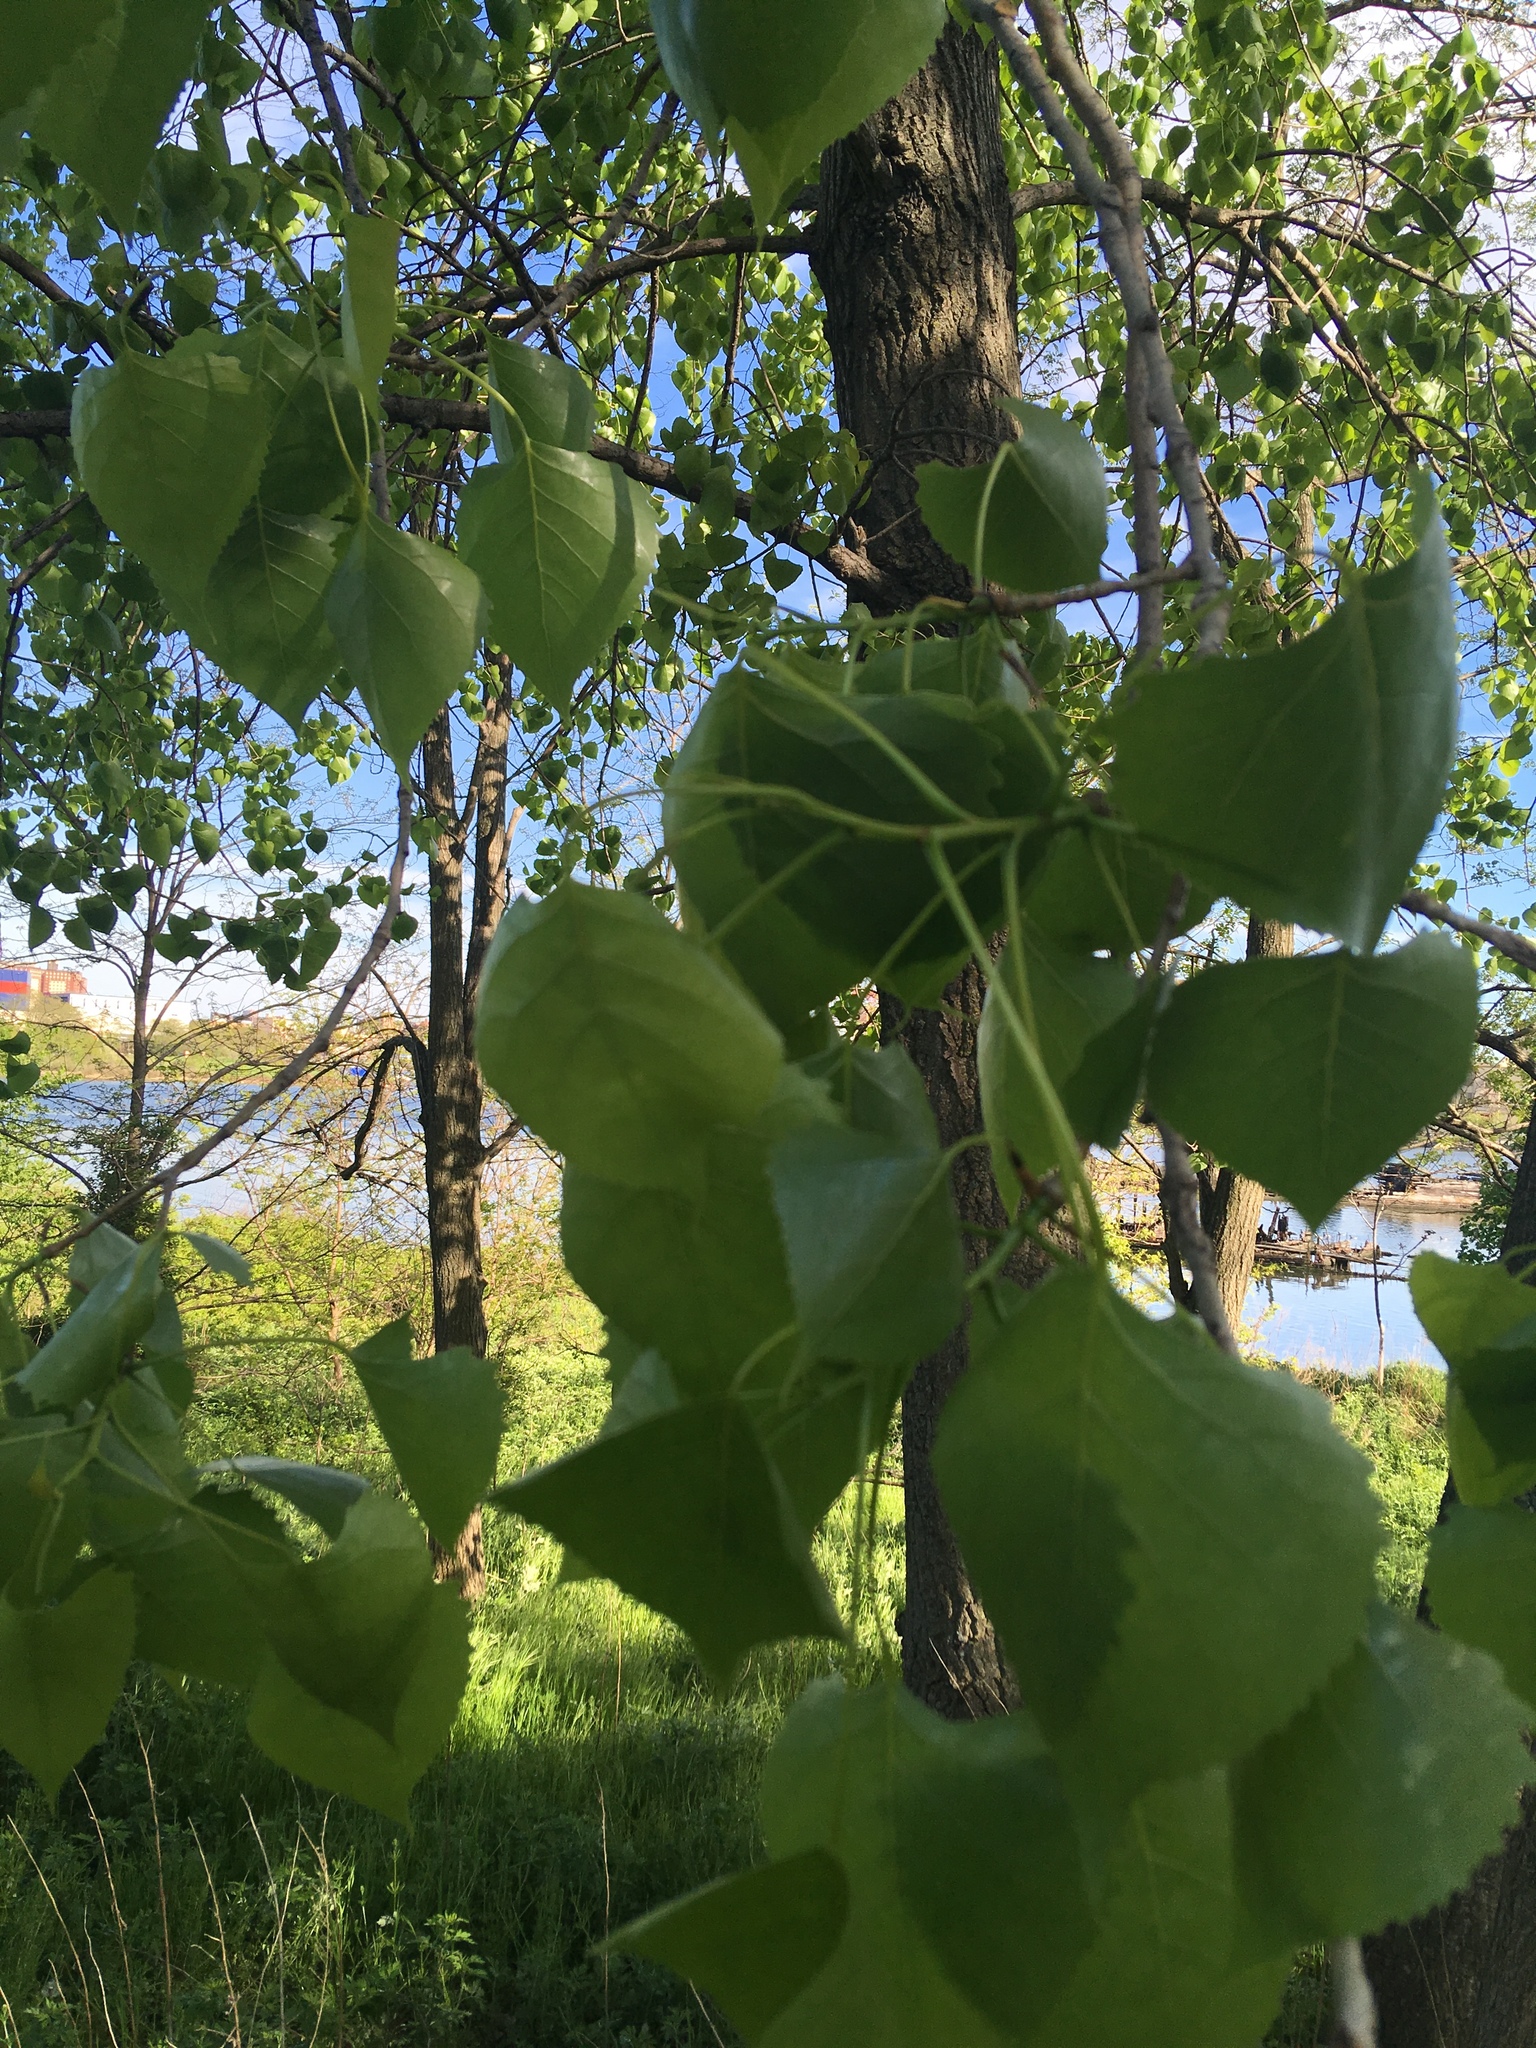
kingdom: Plantae
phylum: Tracheophyta
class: Magnoliopsida
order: Malpighiales
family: Salicaceae
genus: Populus
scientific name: Populus deltoides
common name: Eastern cottonwood
